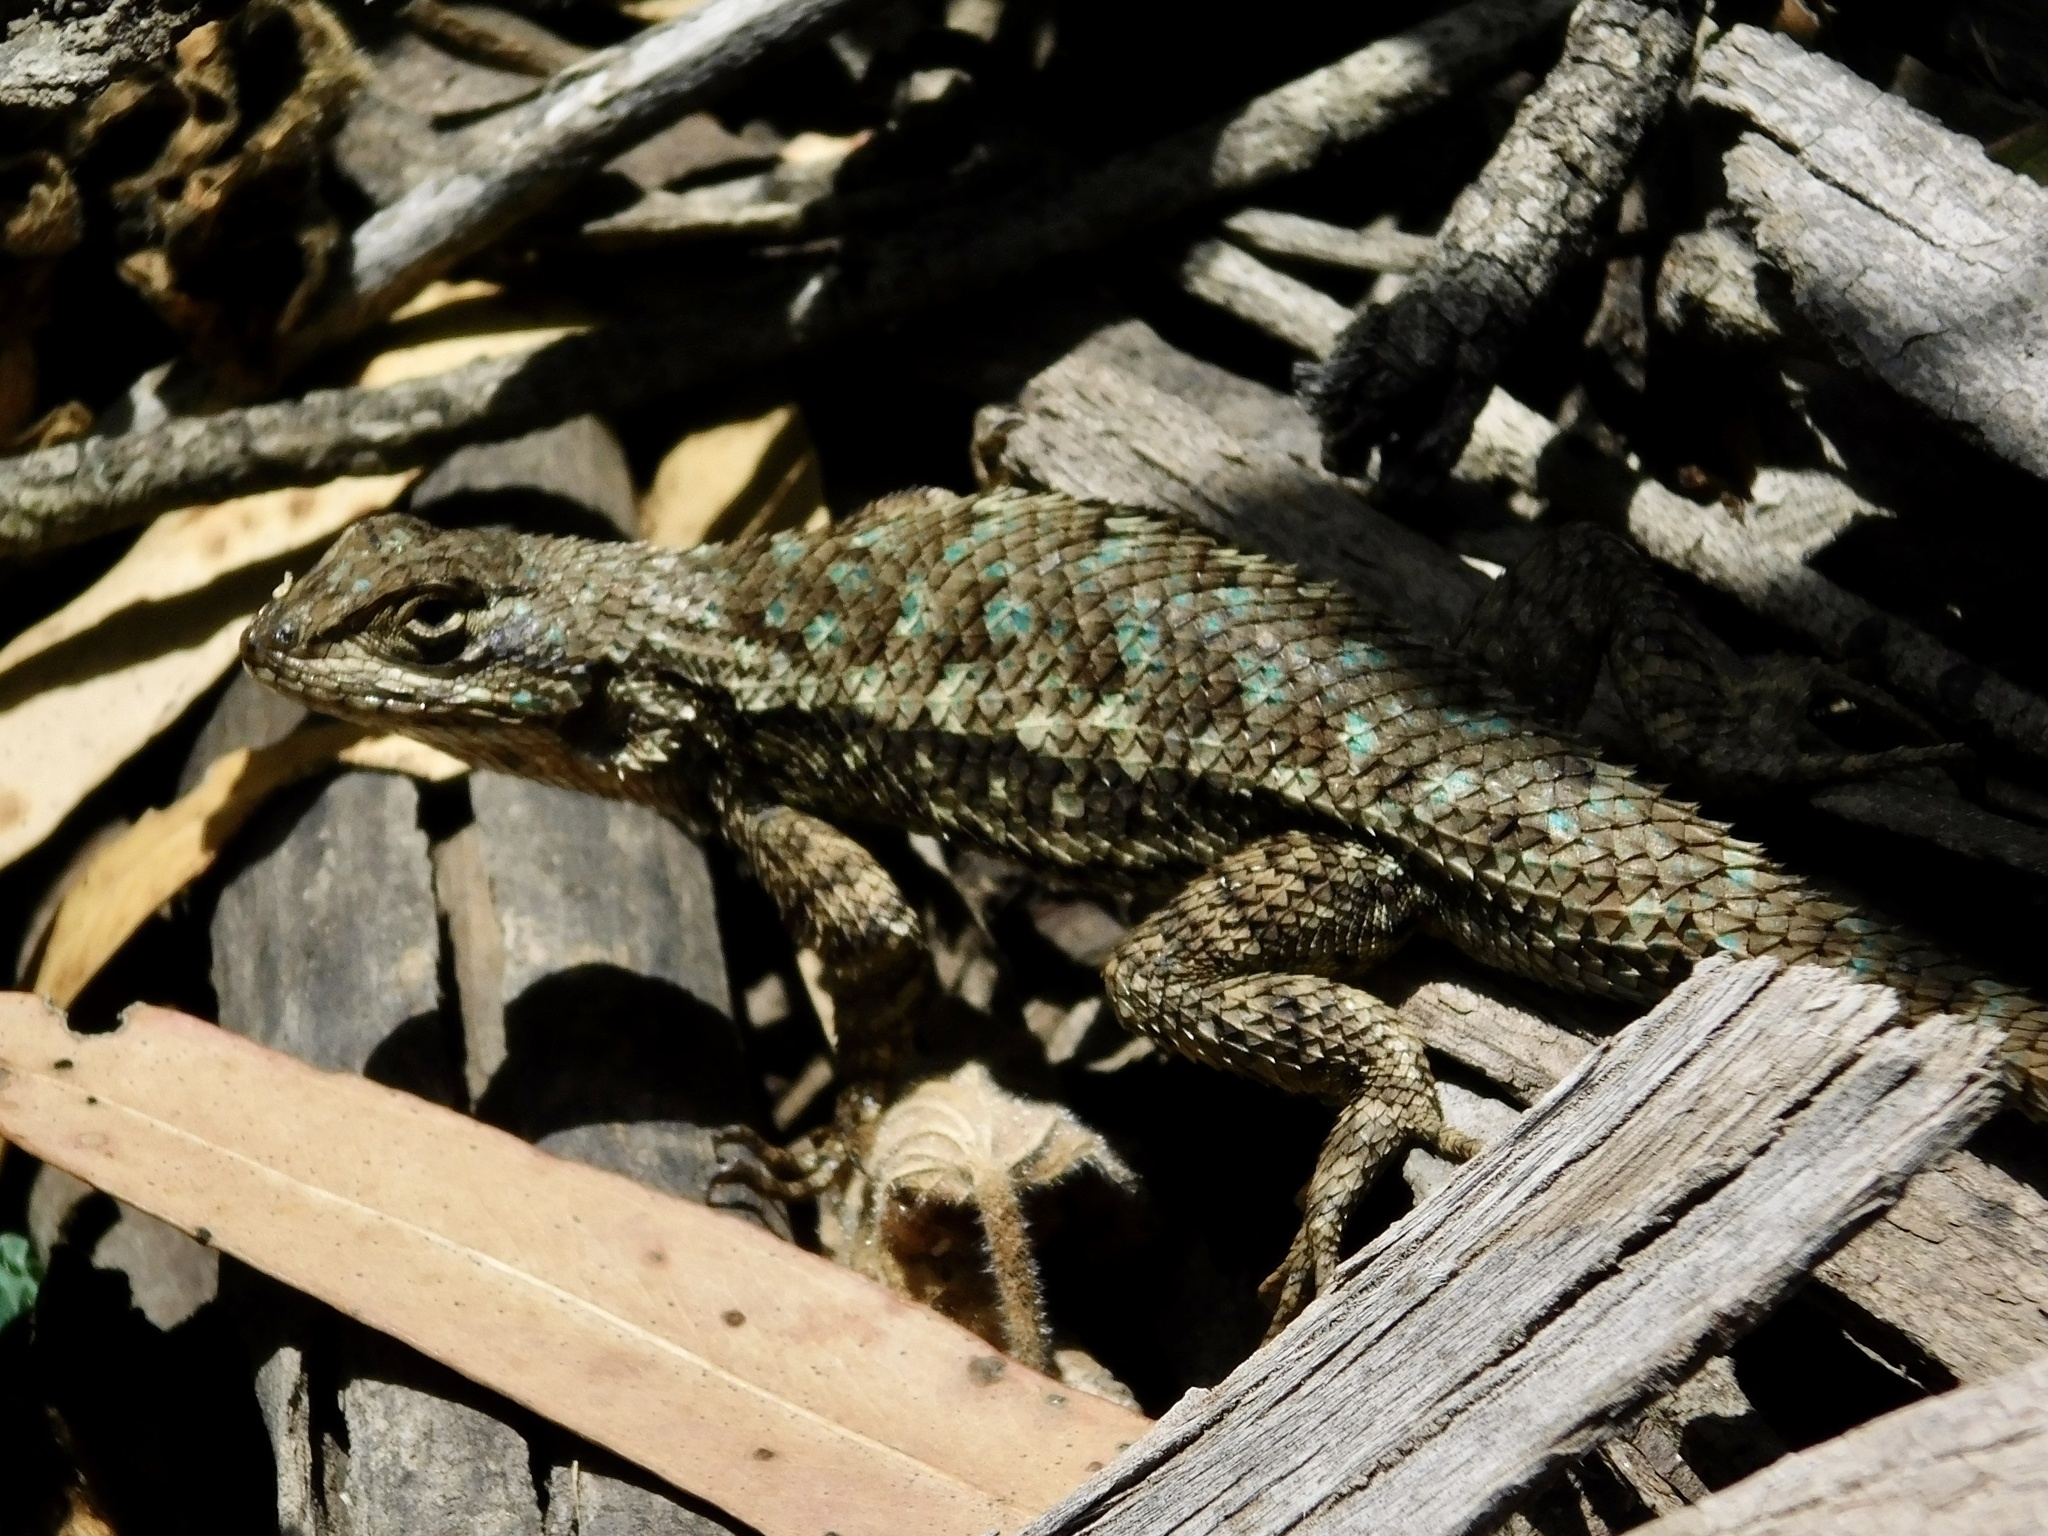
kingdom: Animalia
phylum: Chordata
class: Squamata
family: Phrynosomatidae
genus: Sceloporus
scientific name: Sceloporus occidentalis
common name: Western fence lizard
